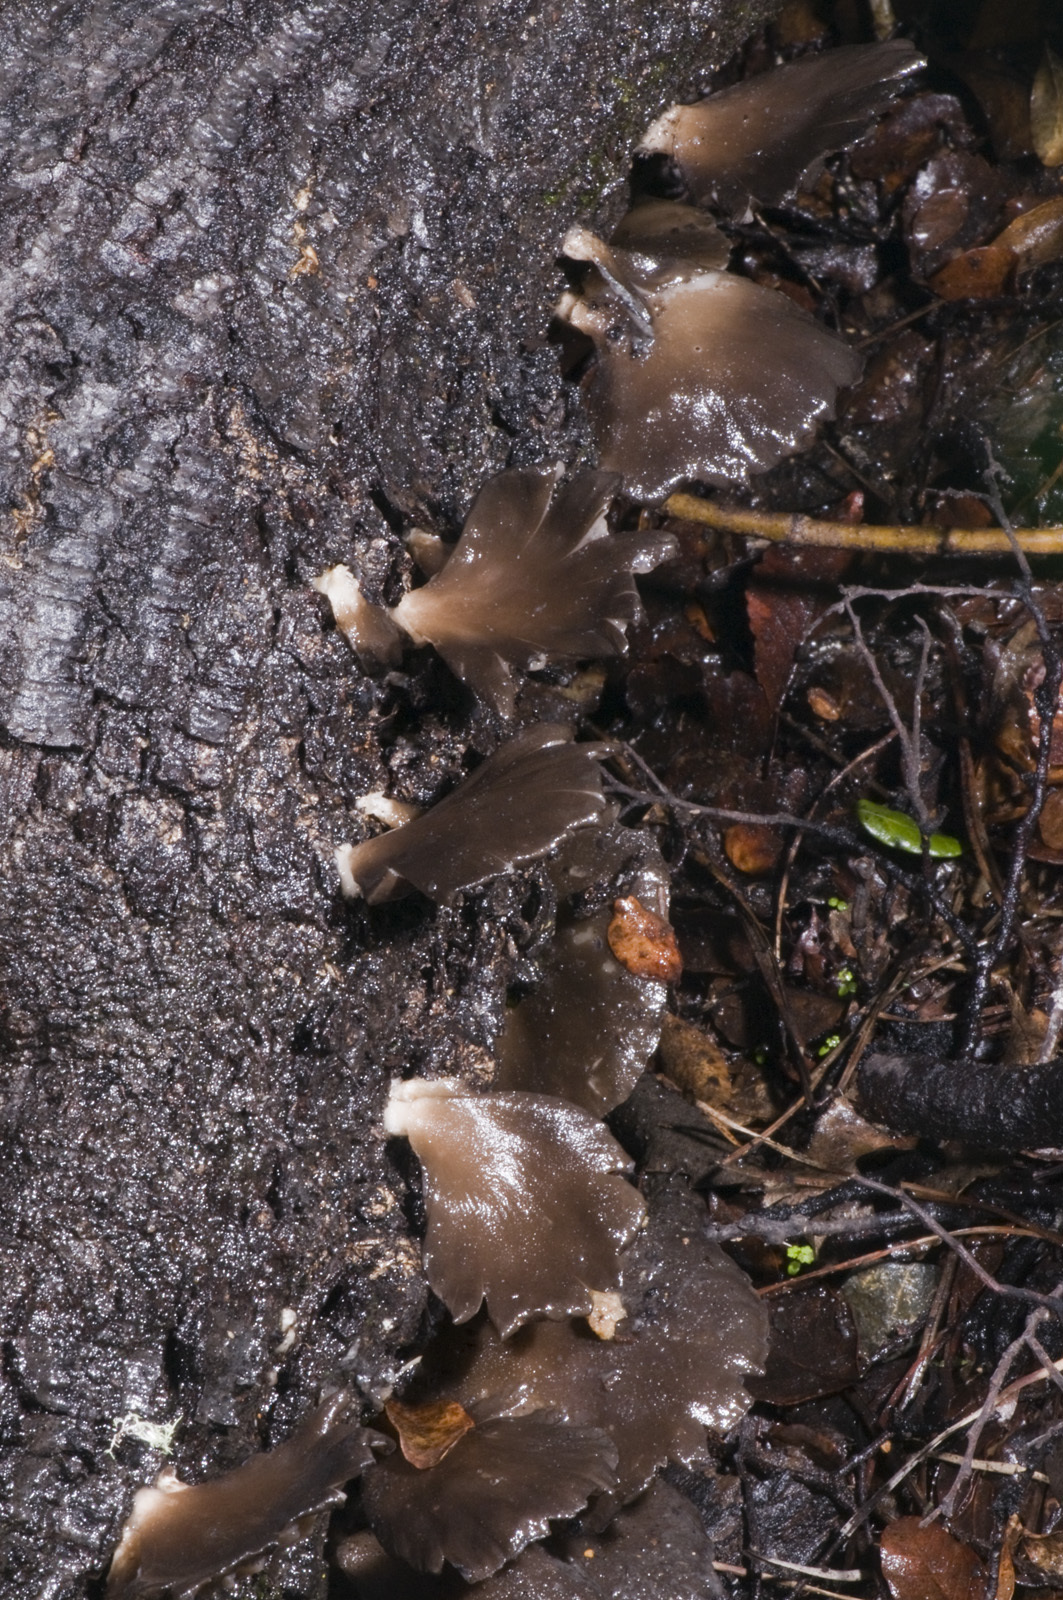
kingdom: Fungi
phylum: Basidiomycota
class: Agaricomycetes
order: Agaricales
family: Pleurotaceae
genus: Pleurotus
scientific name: Pleurotus purpureo-olivaceus
